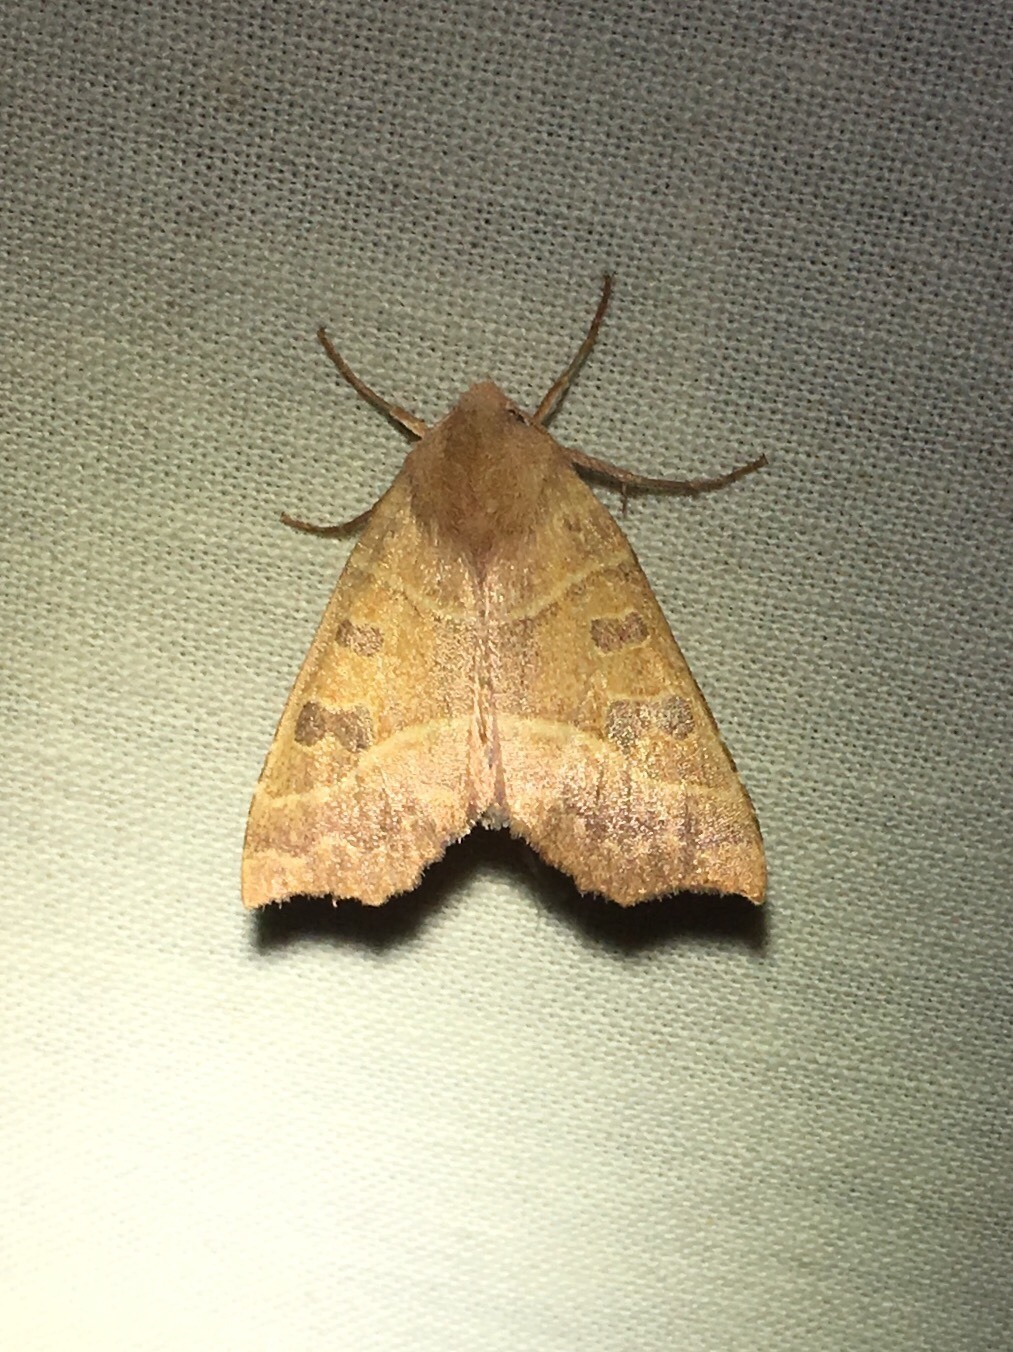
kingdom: Animalia
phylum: Arthropoda
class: Insecta
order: Lepidoptera
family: Noctuidae
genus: Eucirroedia
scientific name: Eucirroedia pampina
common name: Scalloped sallow
